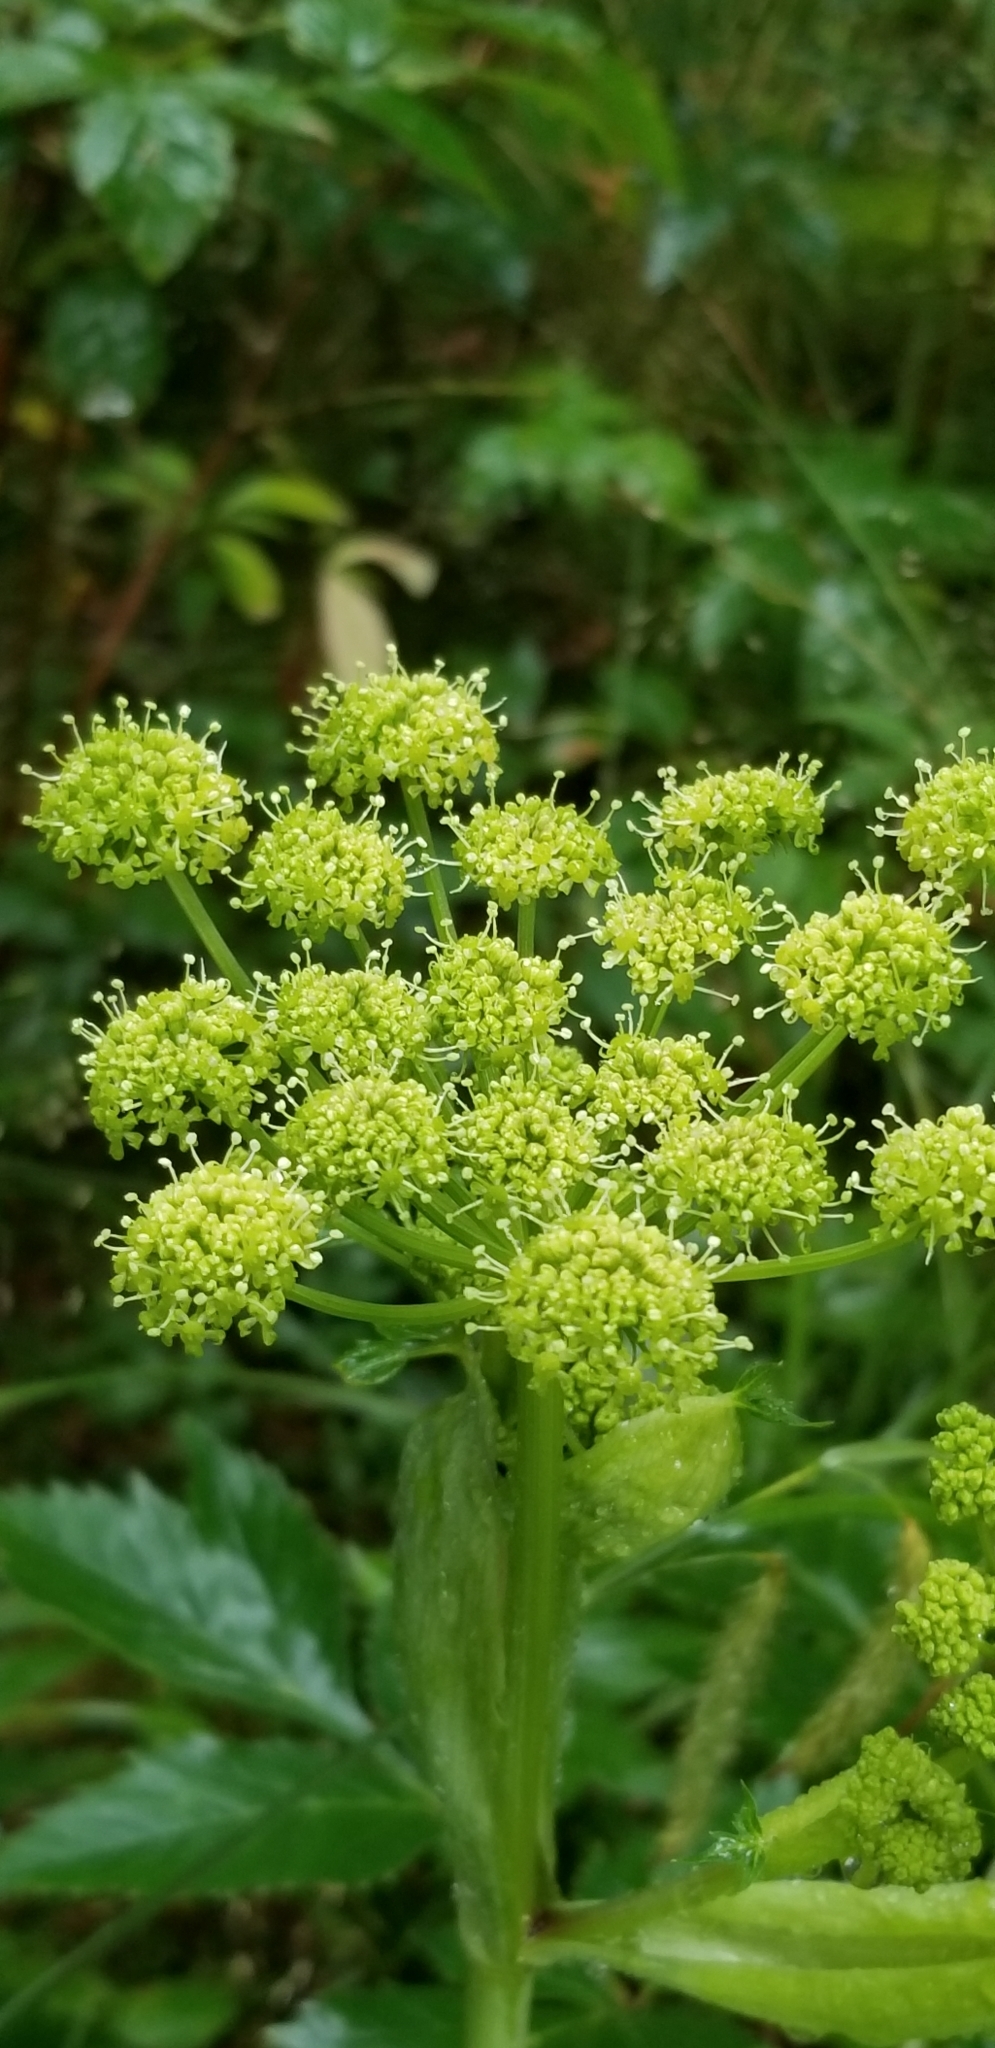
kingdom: Plantae
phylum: Tracheophyta
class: Magnoliopsida
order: Apiales
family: Apiaceae
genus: Angelica
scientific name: Angelica triquinata
